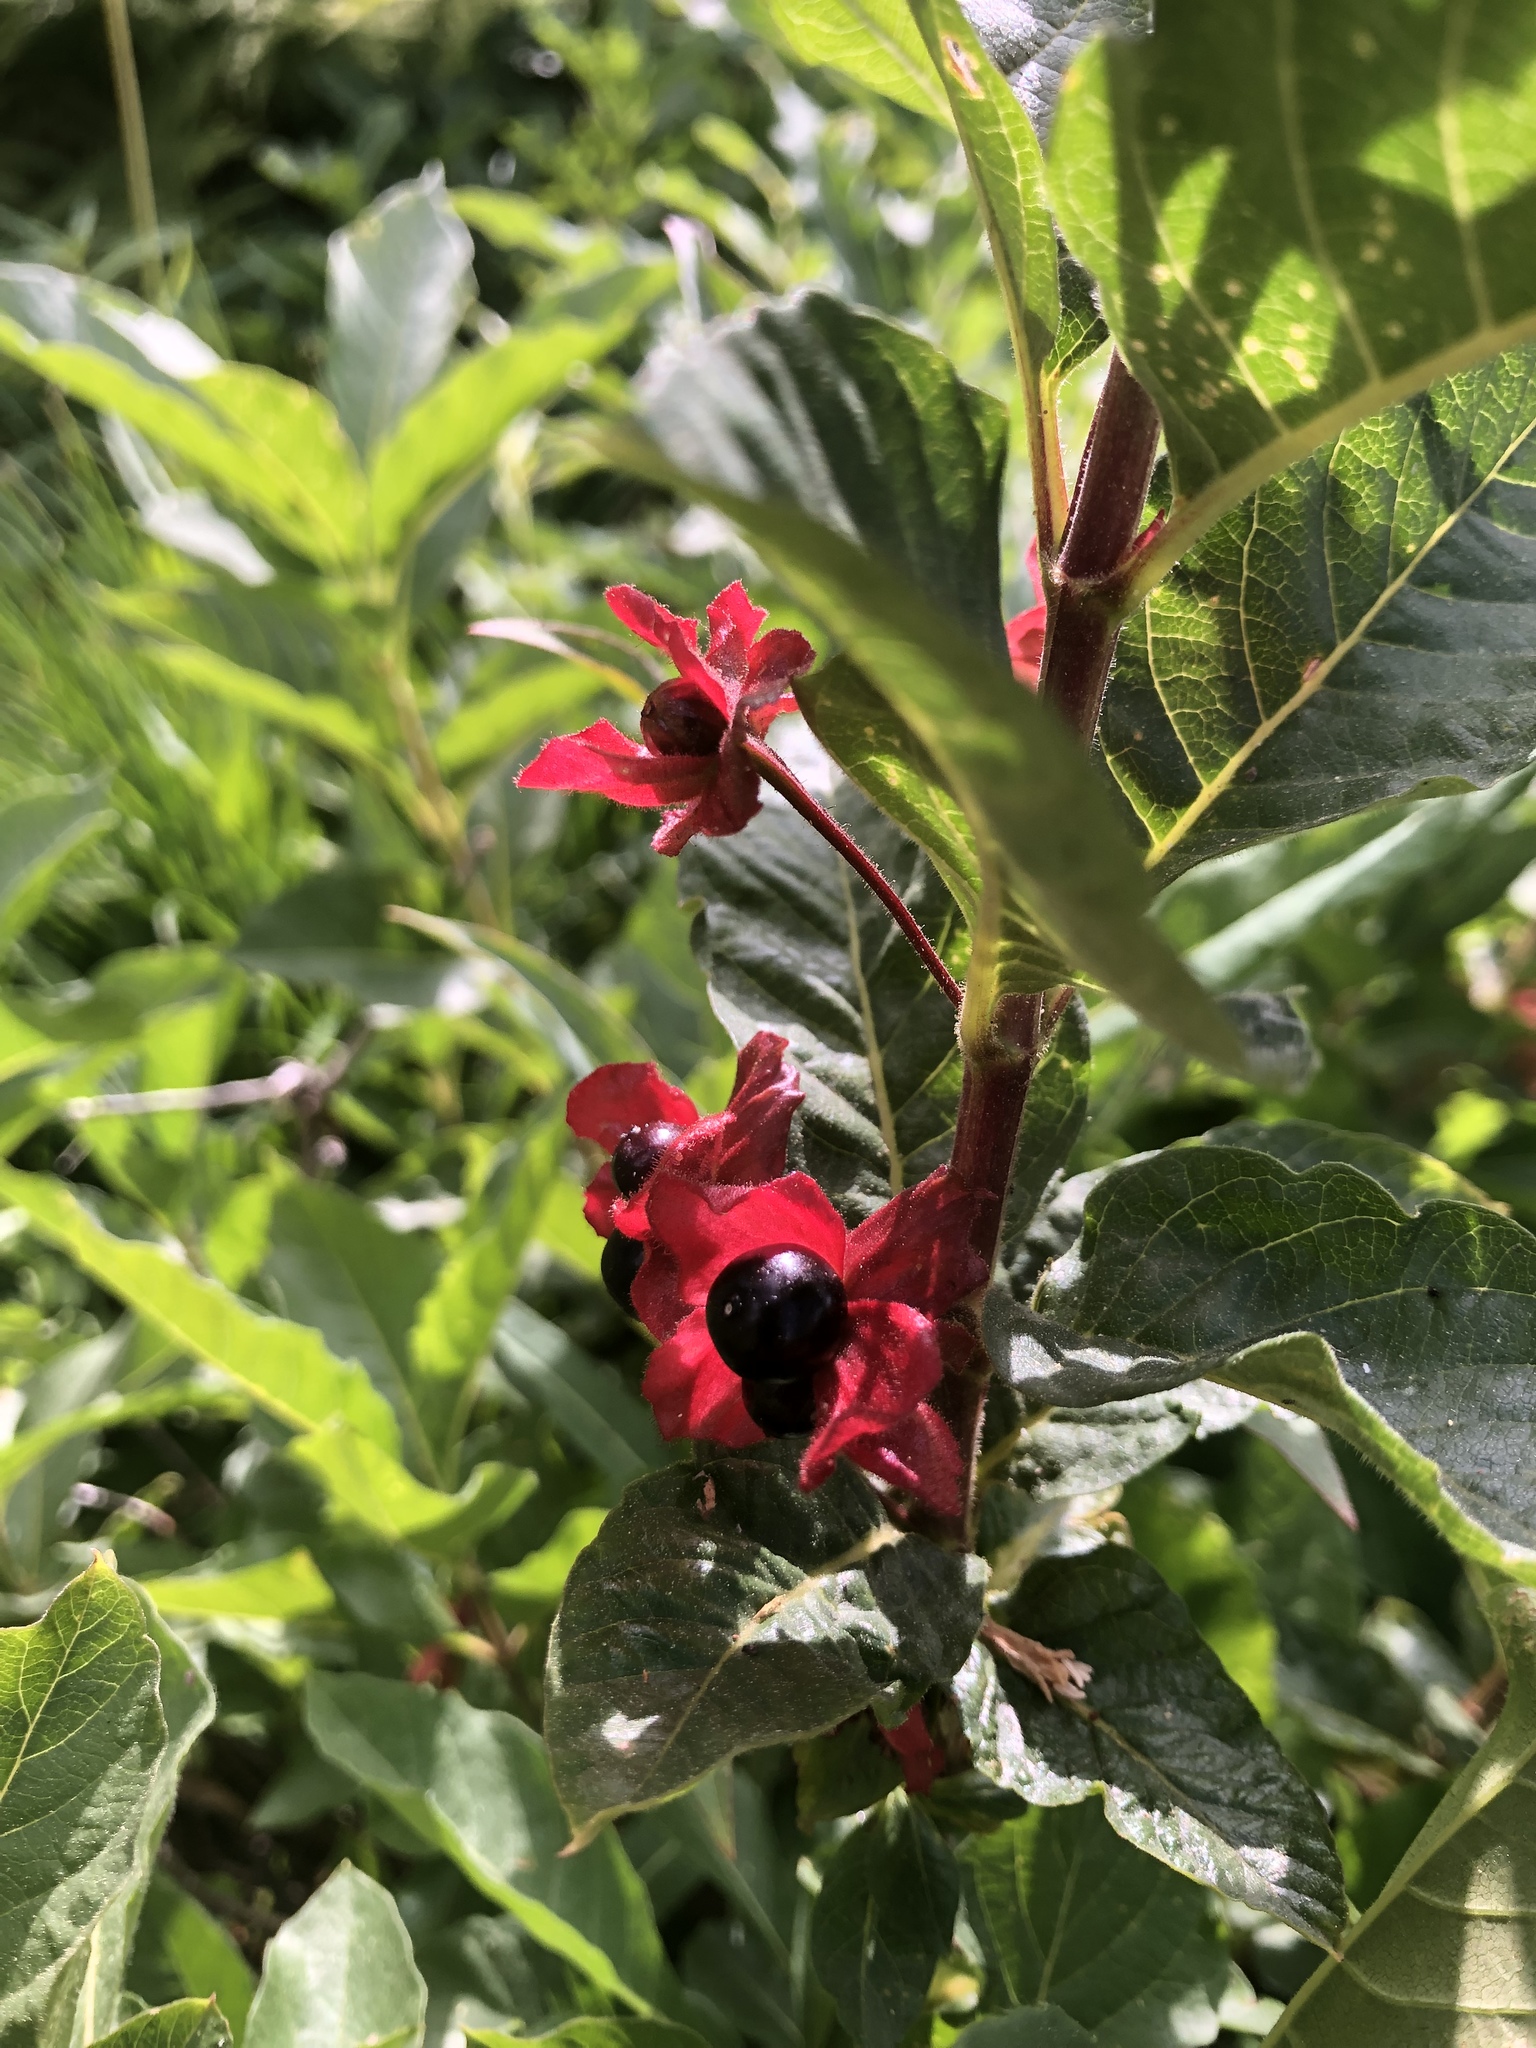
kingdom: Plantae
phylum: Tracheophyta
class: Magnoliopsida
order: Dipsacales
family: Caprifoliaceae
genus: Lonicera
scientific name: Lonicera involucrata
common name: Californian honeysuckle
